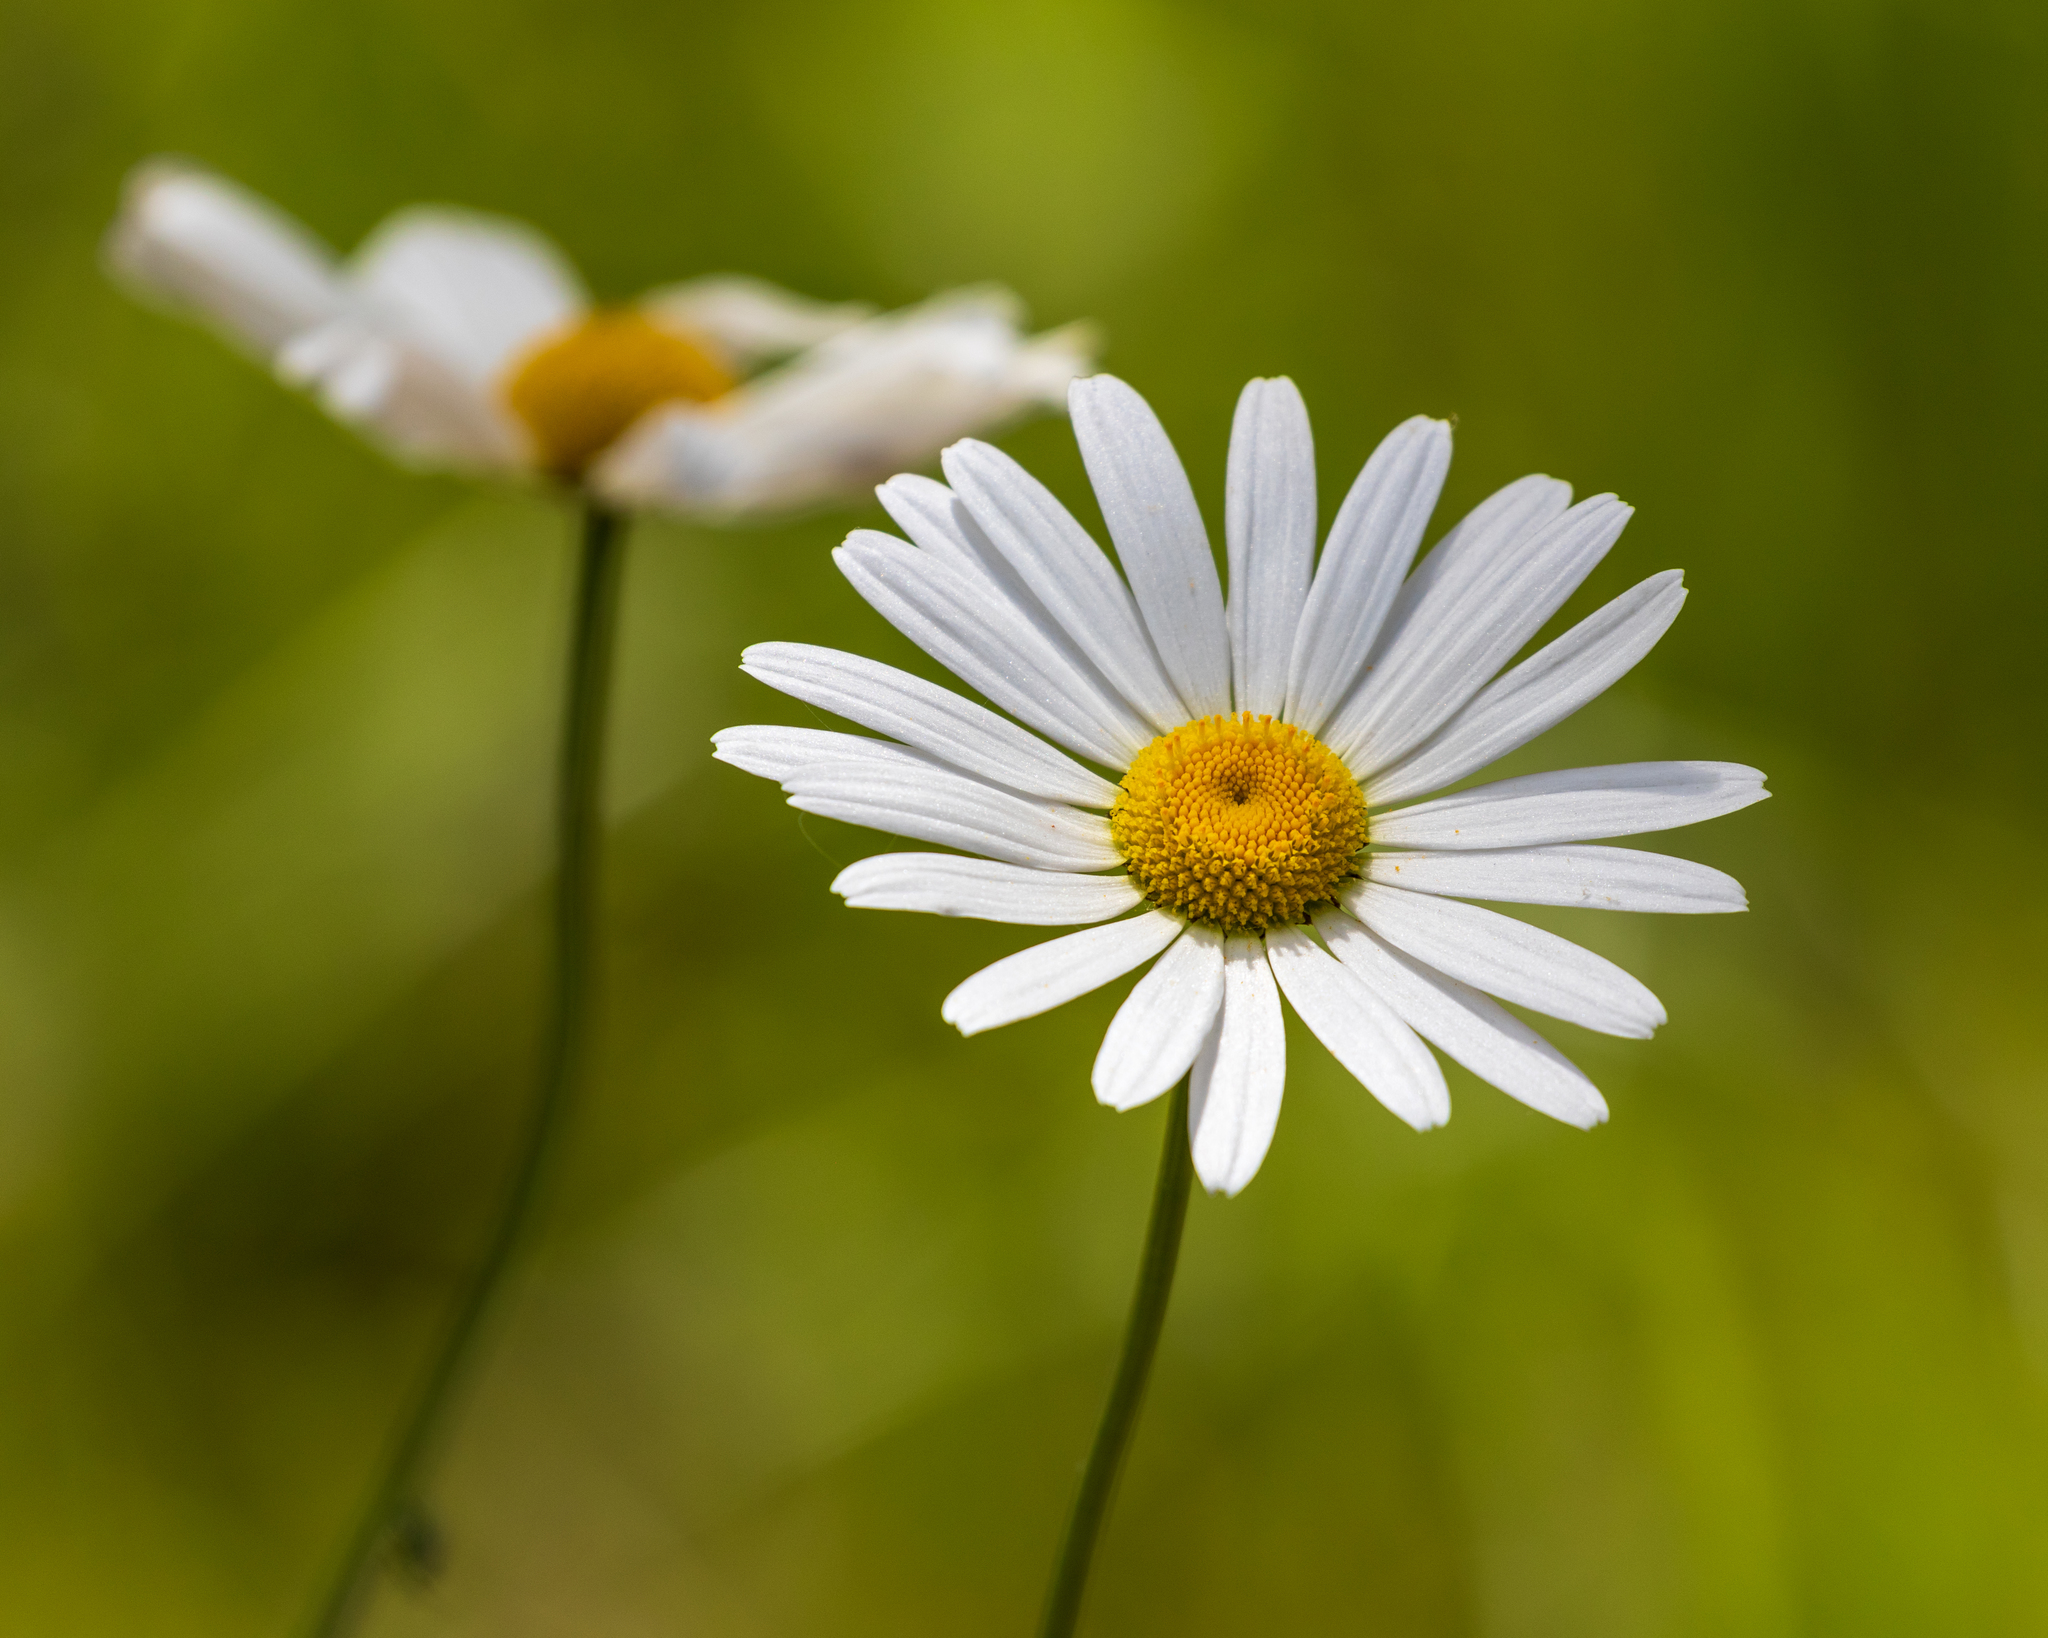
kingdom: Plantae
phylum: Tracheophyta
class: Magnoliopsida
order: Asterales
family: Asteraceae
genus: Leucanthemum
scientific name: Leucanthemum vulgare
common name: Oxeye daisy
